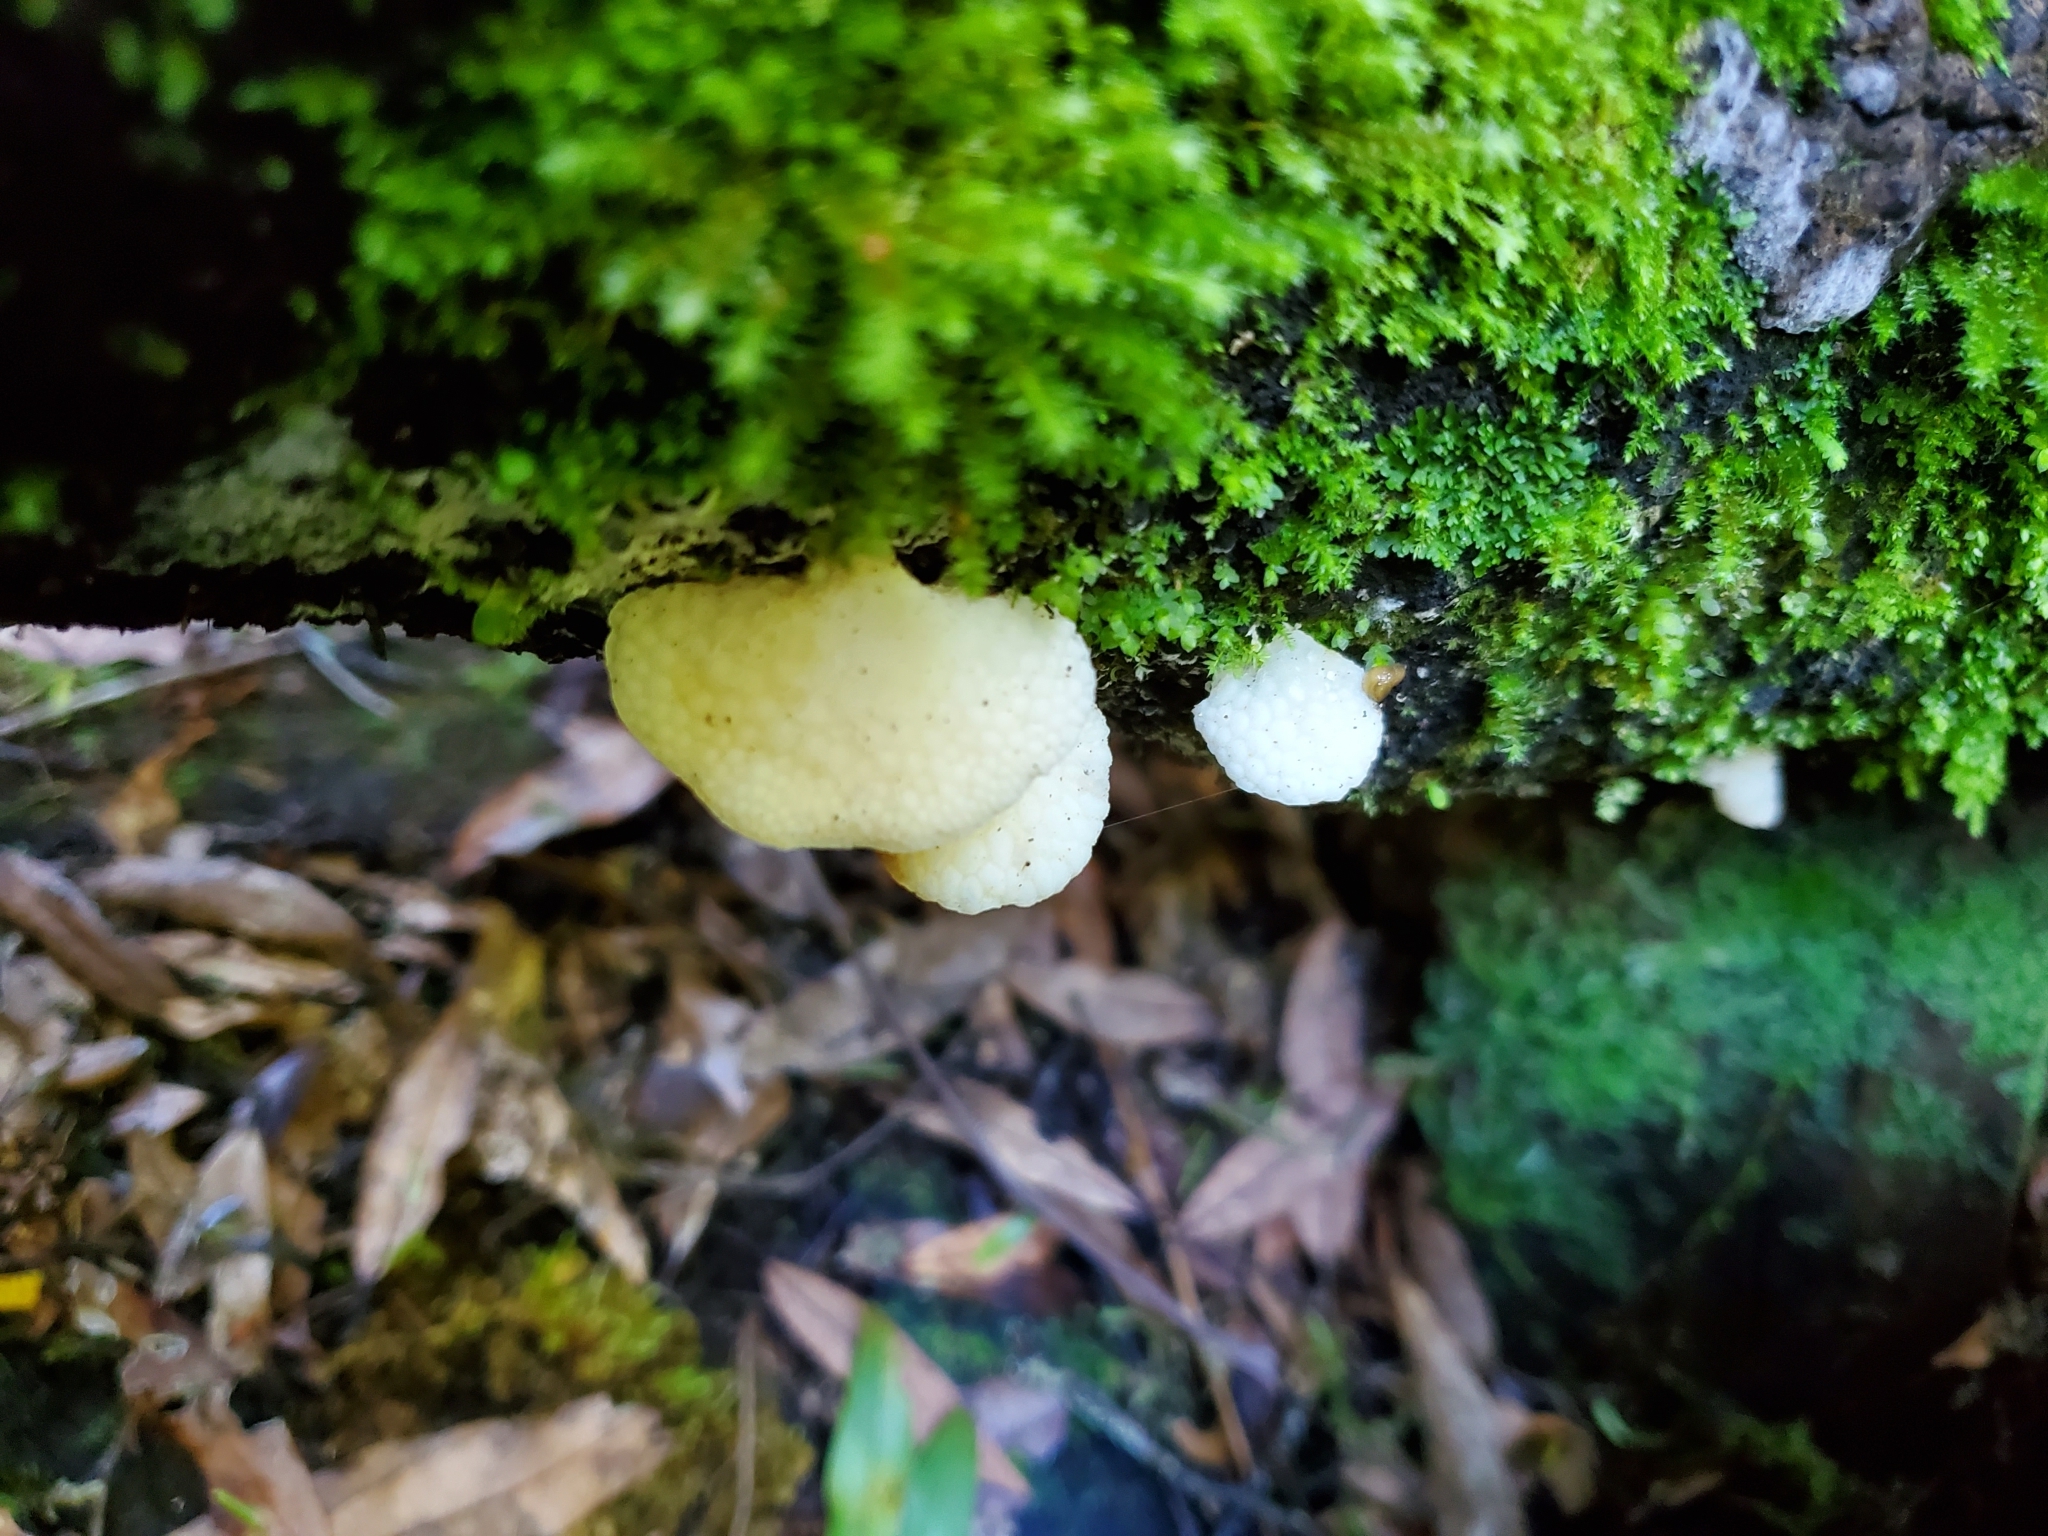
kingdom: Fungi
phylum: Basidiomycota
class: Agaricomycetes
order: Agaricales
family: Mycenaceae
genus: Favolaschia
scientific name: Favolaschia pustulosa
